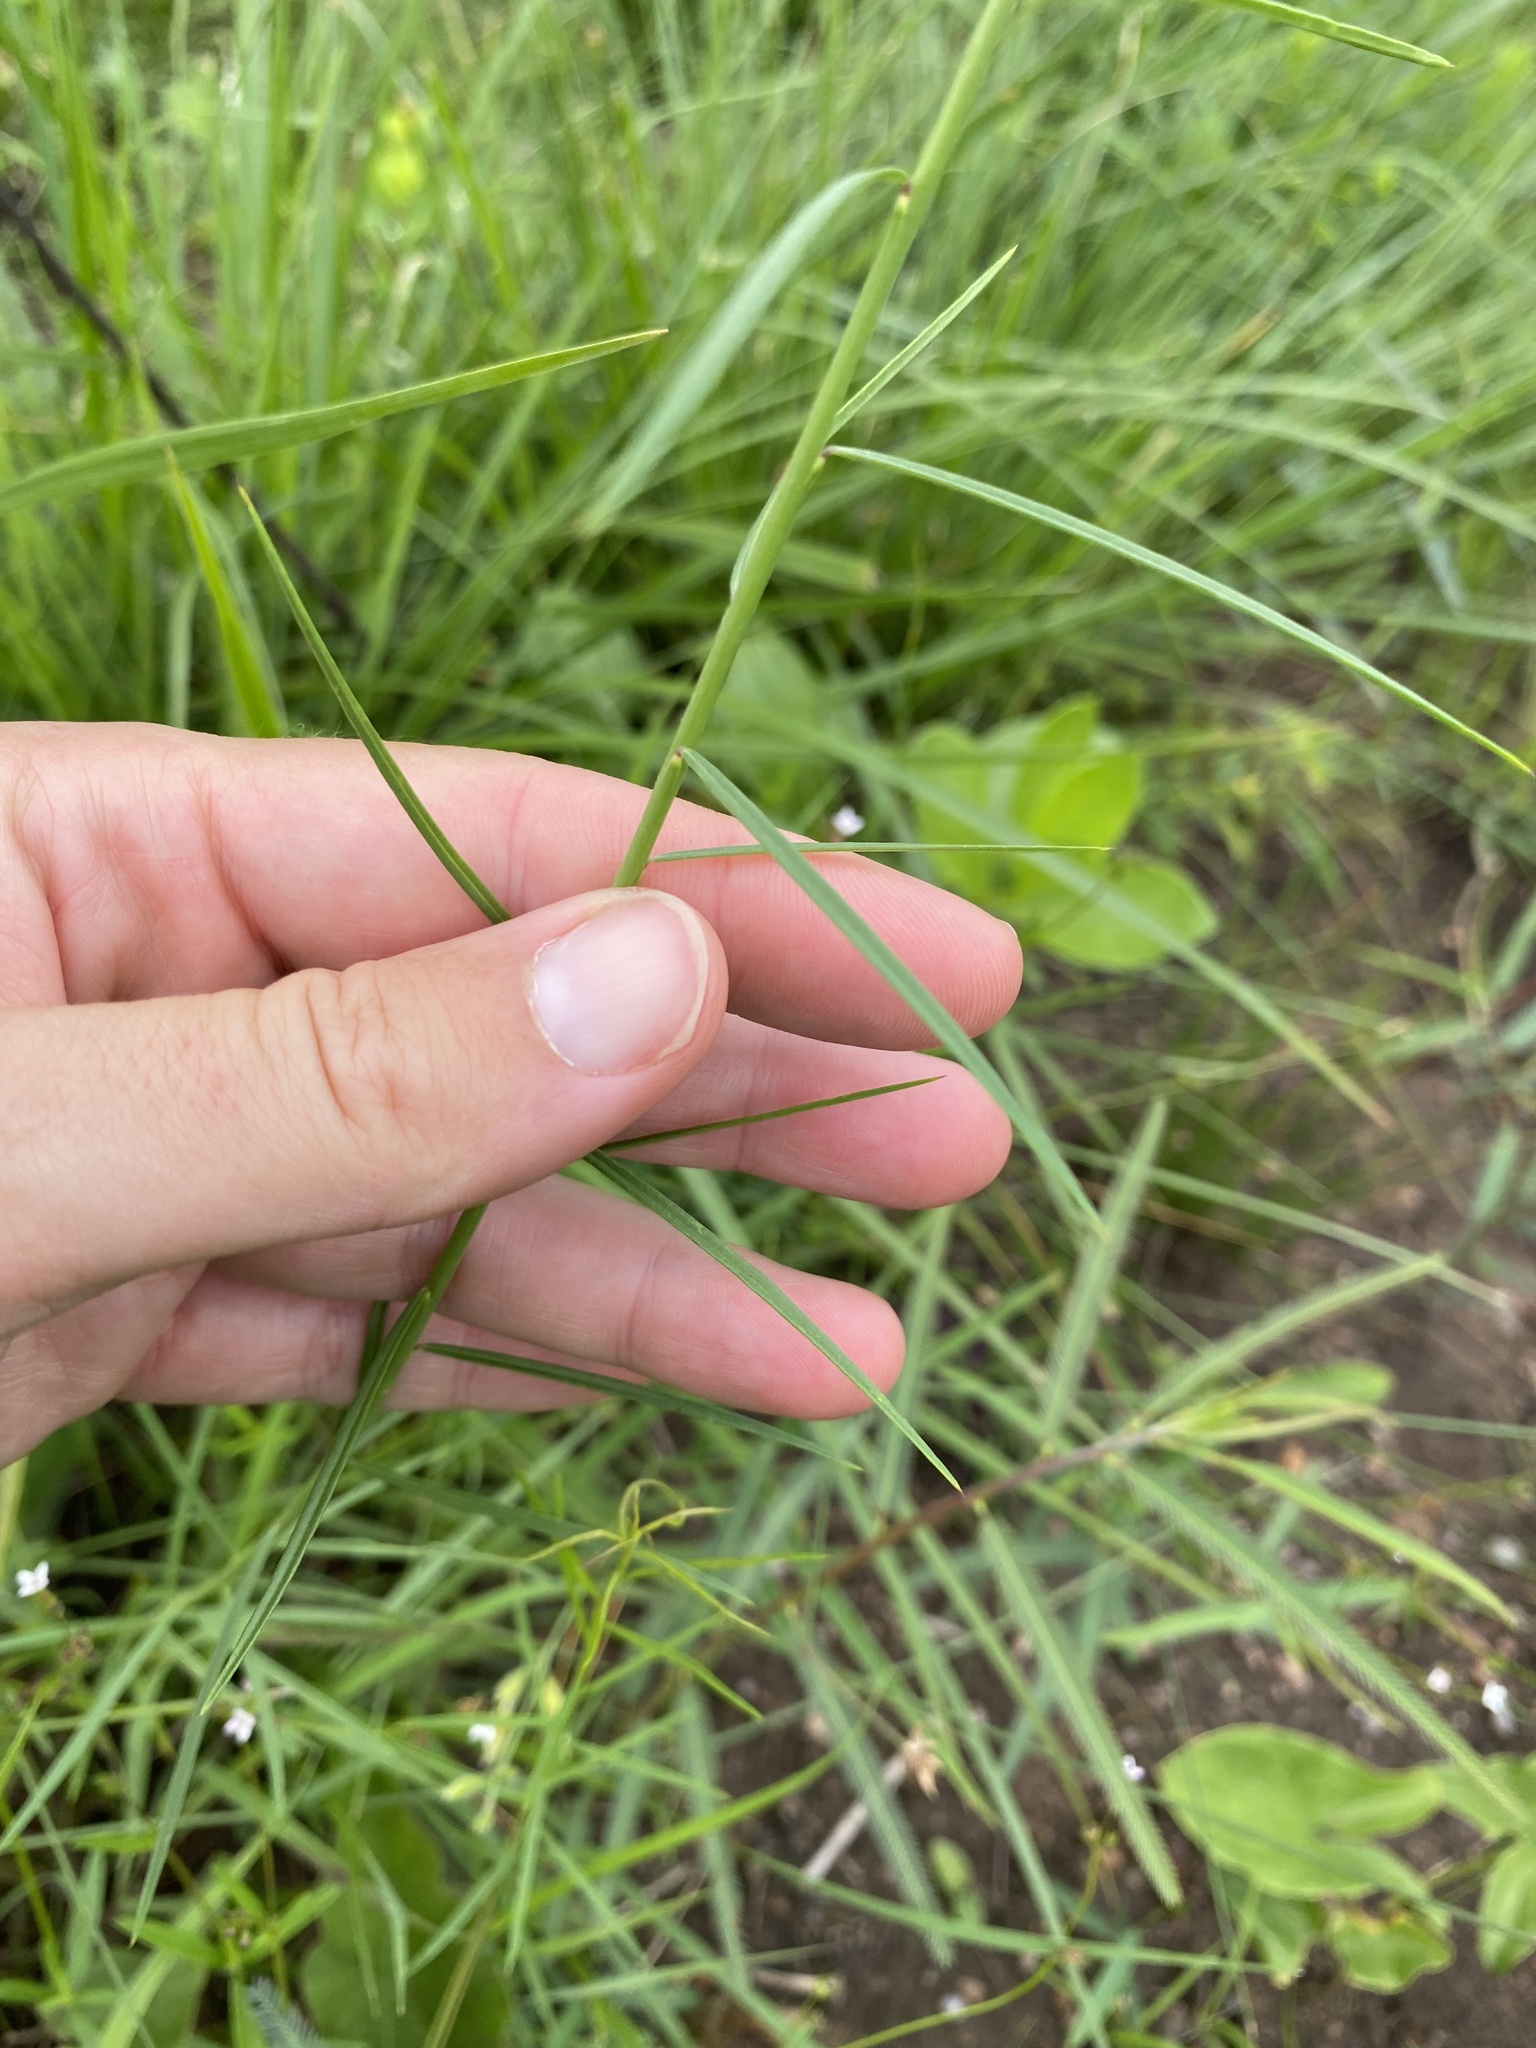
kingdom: Plantae
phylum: Tracheophyta
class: Magnoliopsida
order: Fabales
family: Polygalaceae
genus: Polygala
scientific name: Polygala hottentotta
